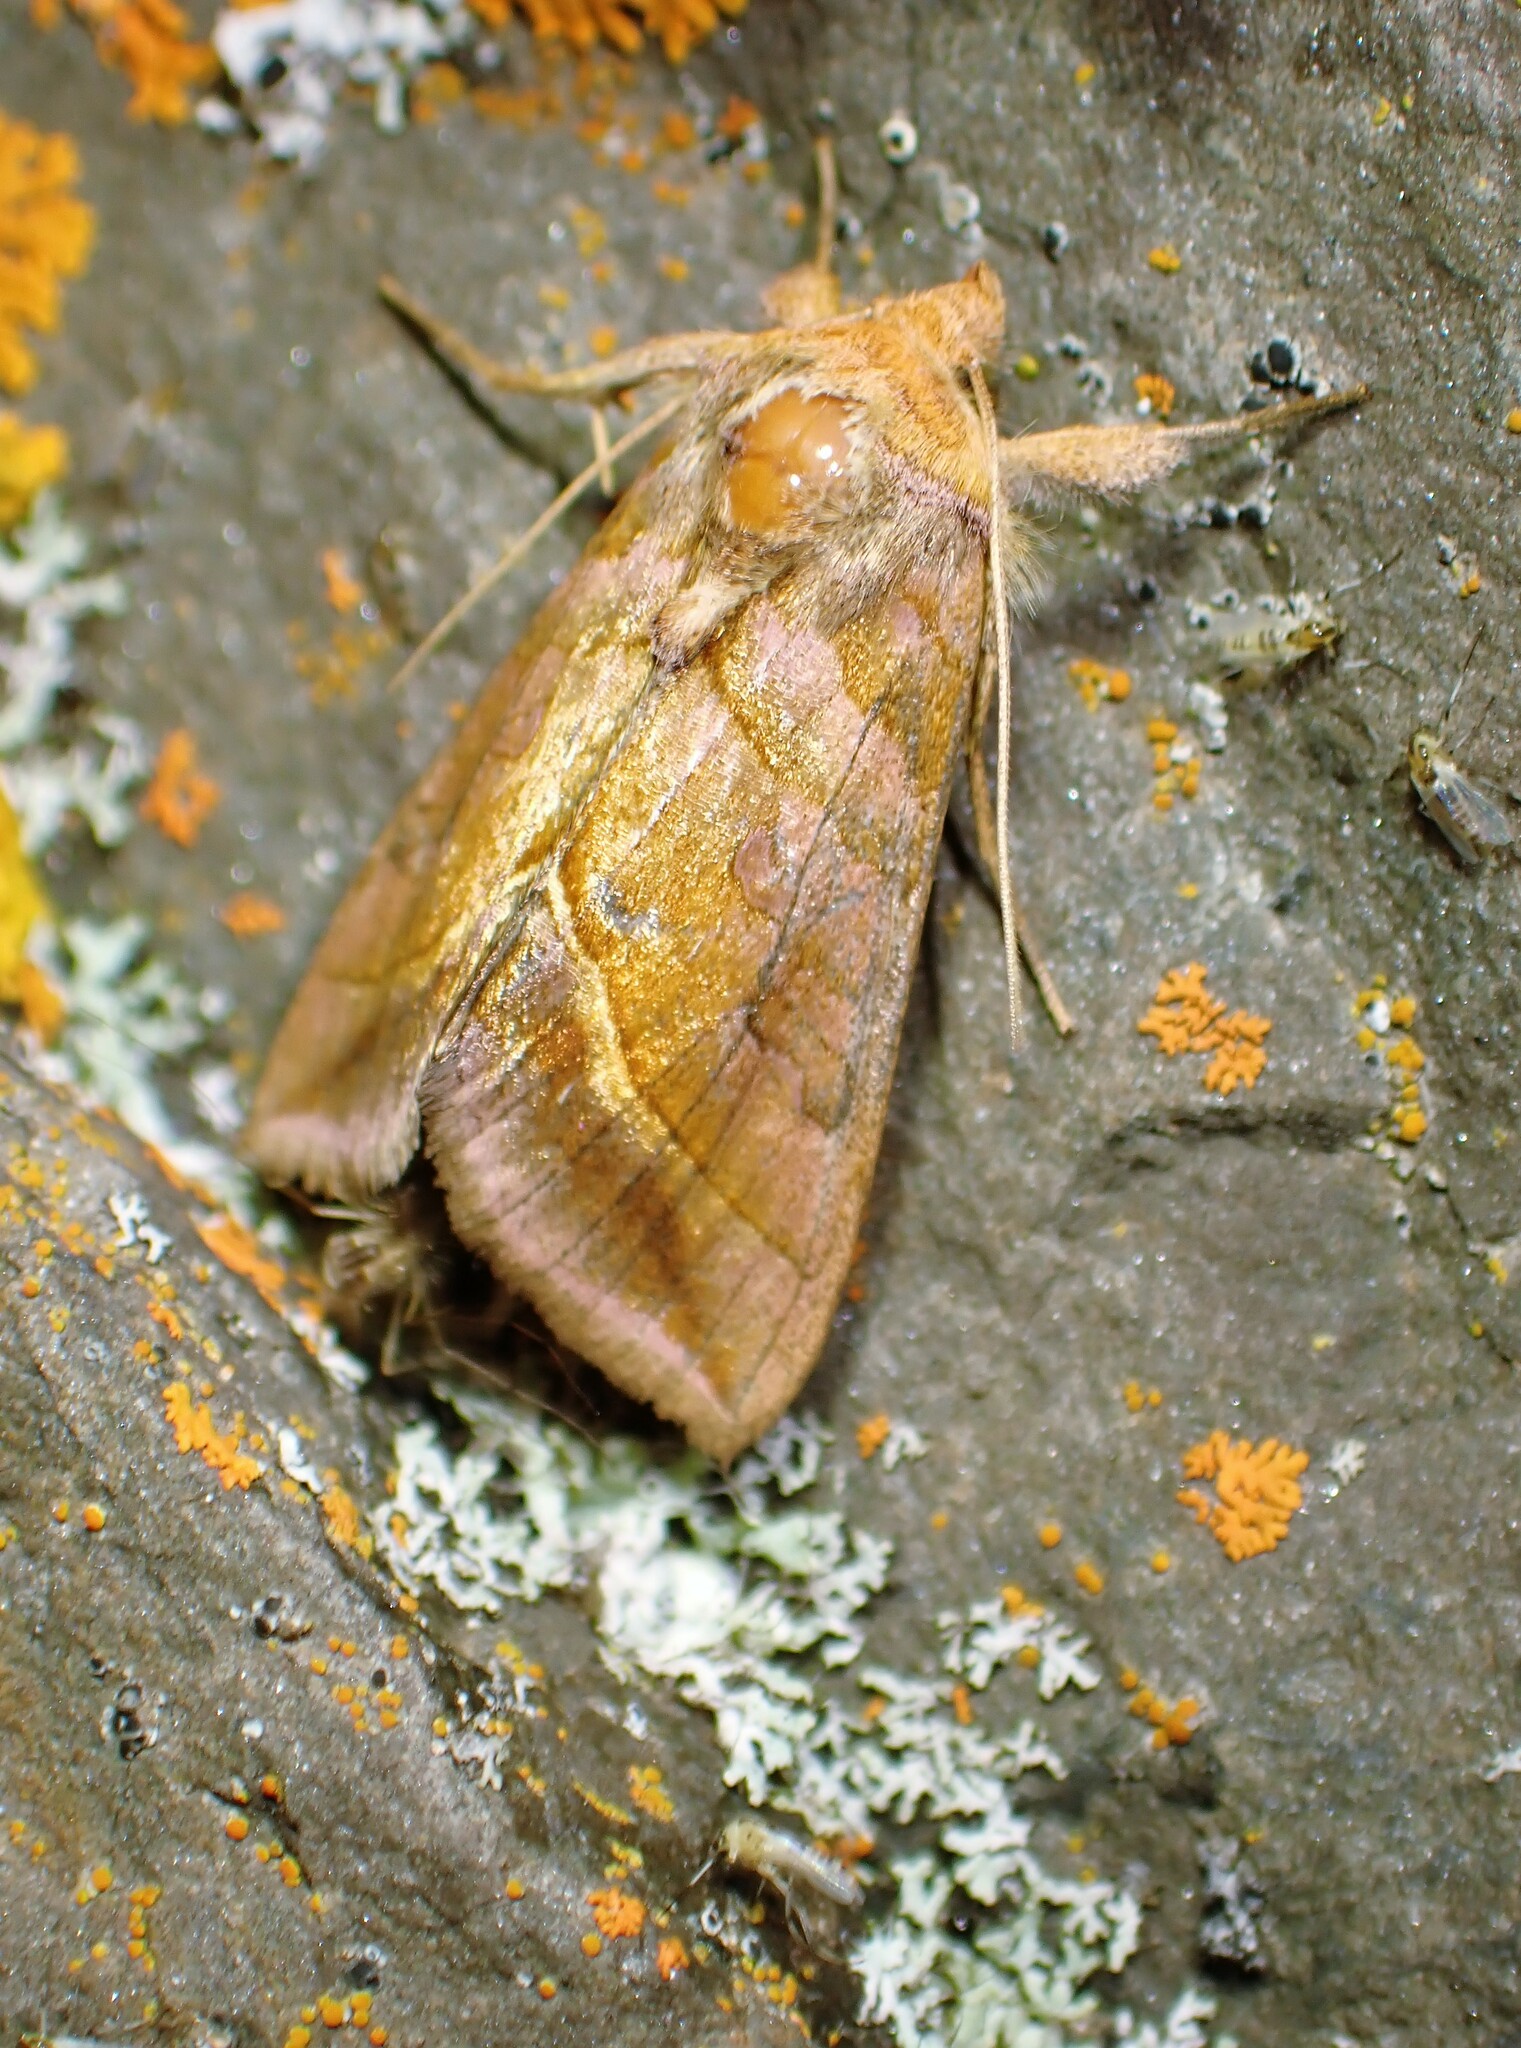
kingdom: Animalia
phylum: Arthropoda
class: Insecta
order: Lepidoptera
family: Noctuidae
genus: Diachrysia
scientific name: Diachrysia aereoides
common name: Dark-spotted looper moth
